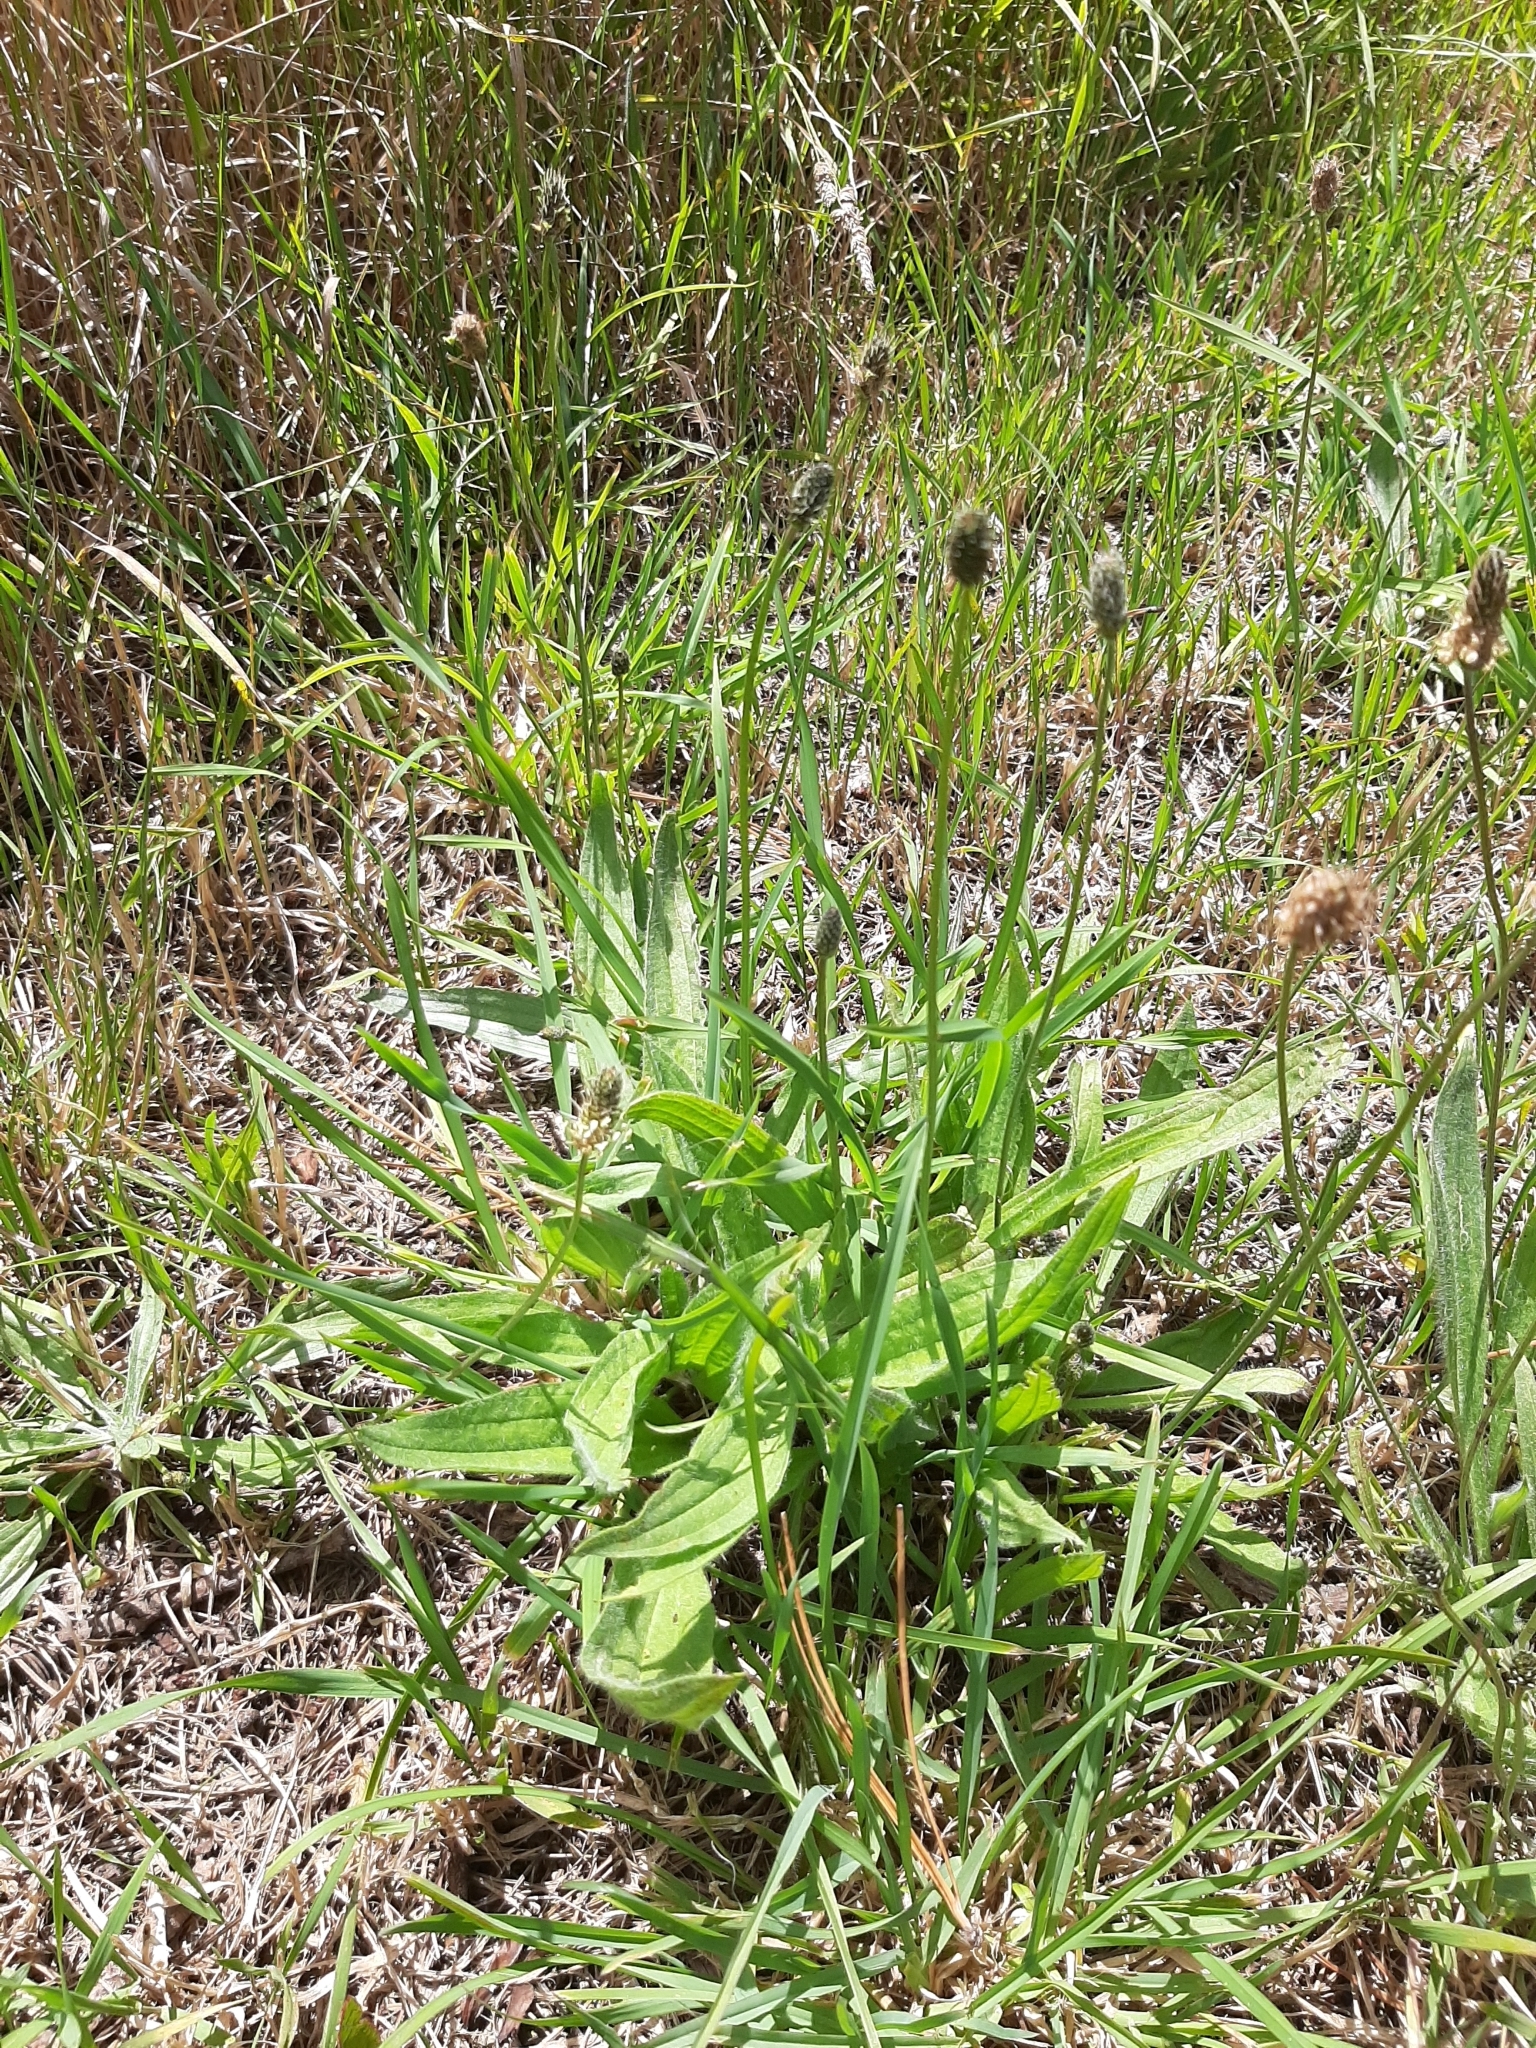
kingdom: Plantae
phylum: Tracheophyta
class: Magnoliopsida
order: Lamiales
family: Plantaginaceae
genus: Plantago
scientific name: Plantago lanceolata
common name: Ribwort plantain
